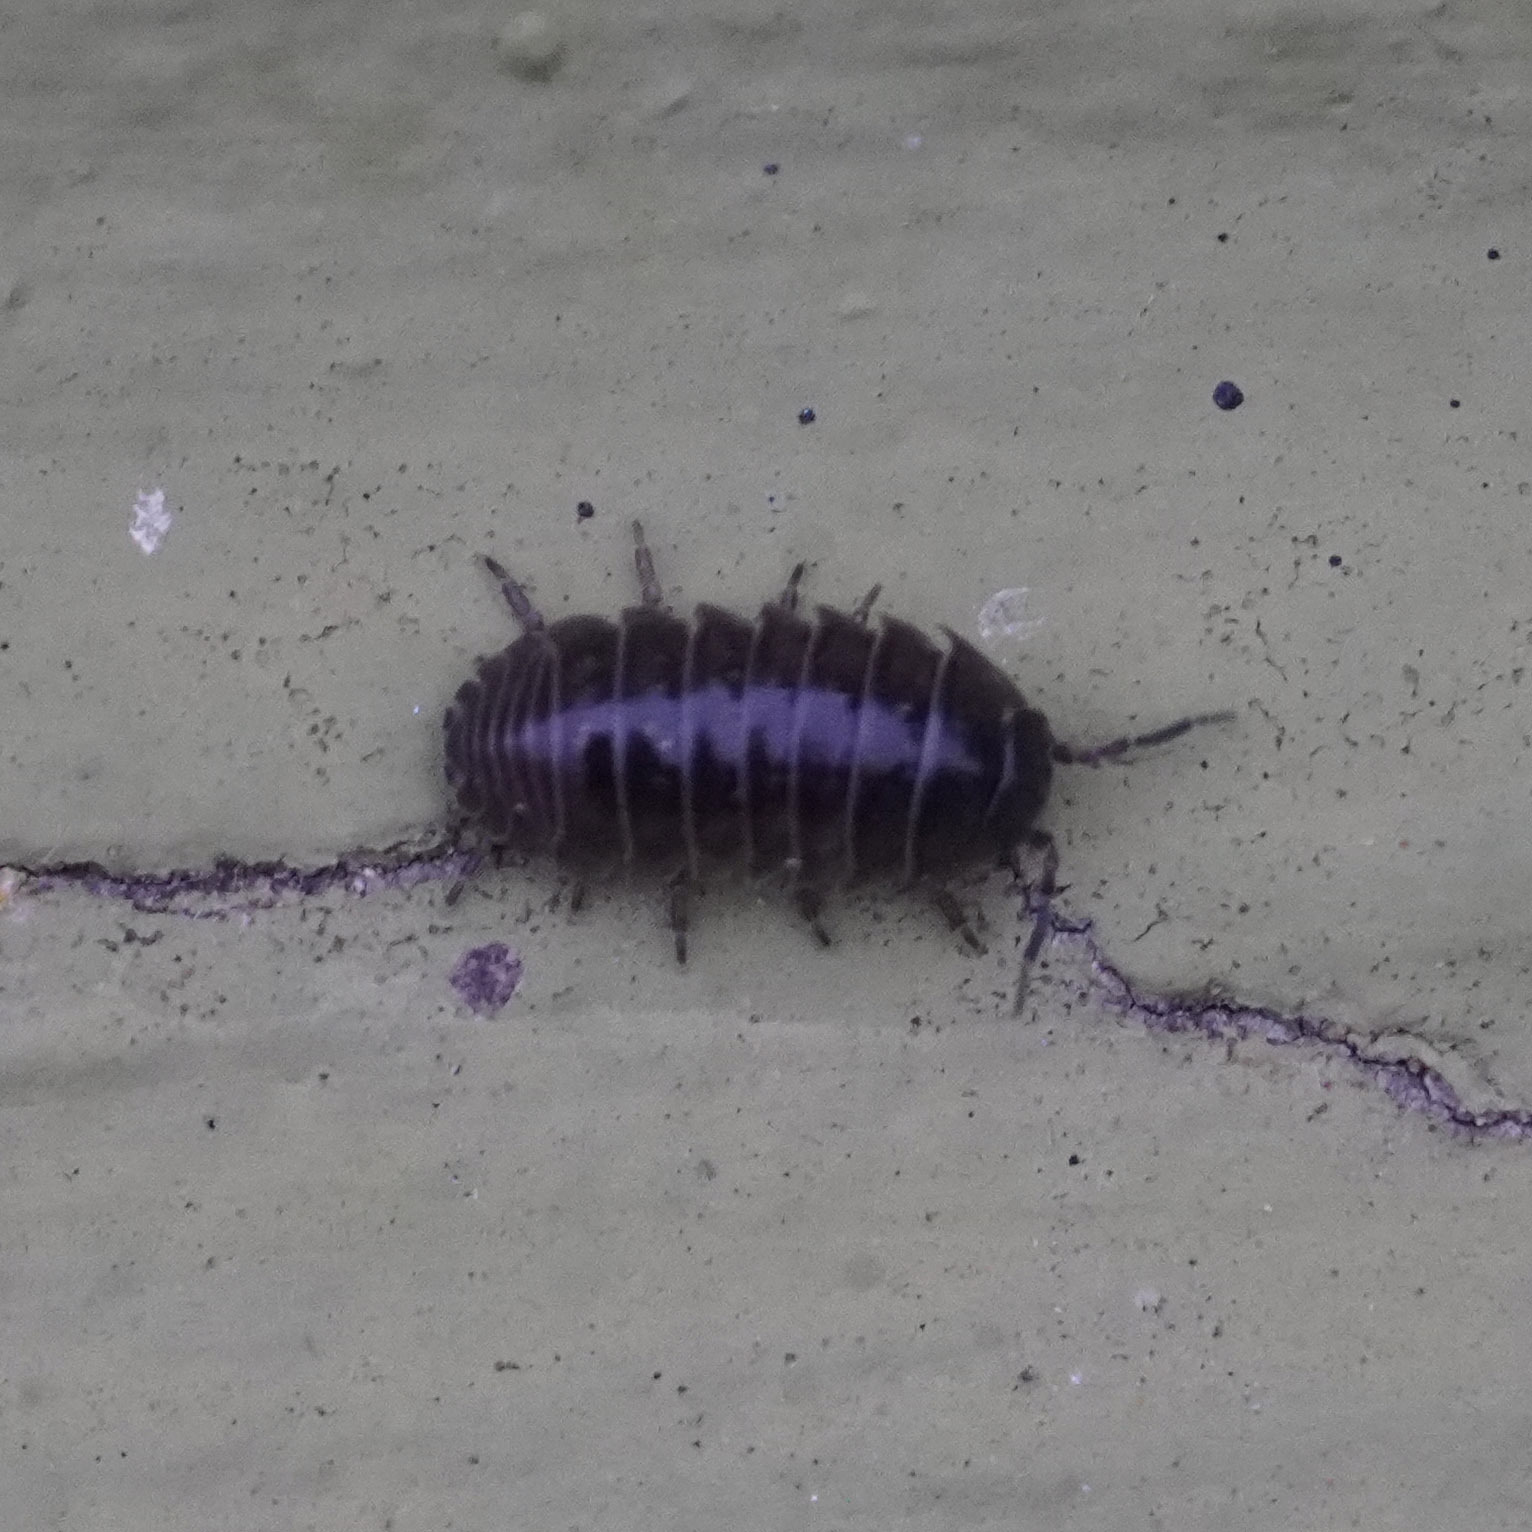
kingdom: Animalia
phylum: Arthropoda
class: Malacostraca
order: Isopoda
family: Armadillidiidae
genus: Armadillidium
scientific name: Armadillidium vulgare
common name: Common pill woodlouse
